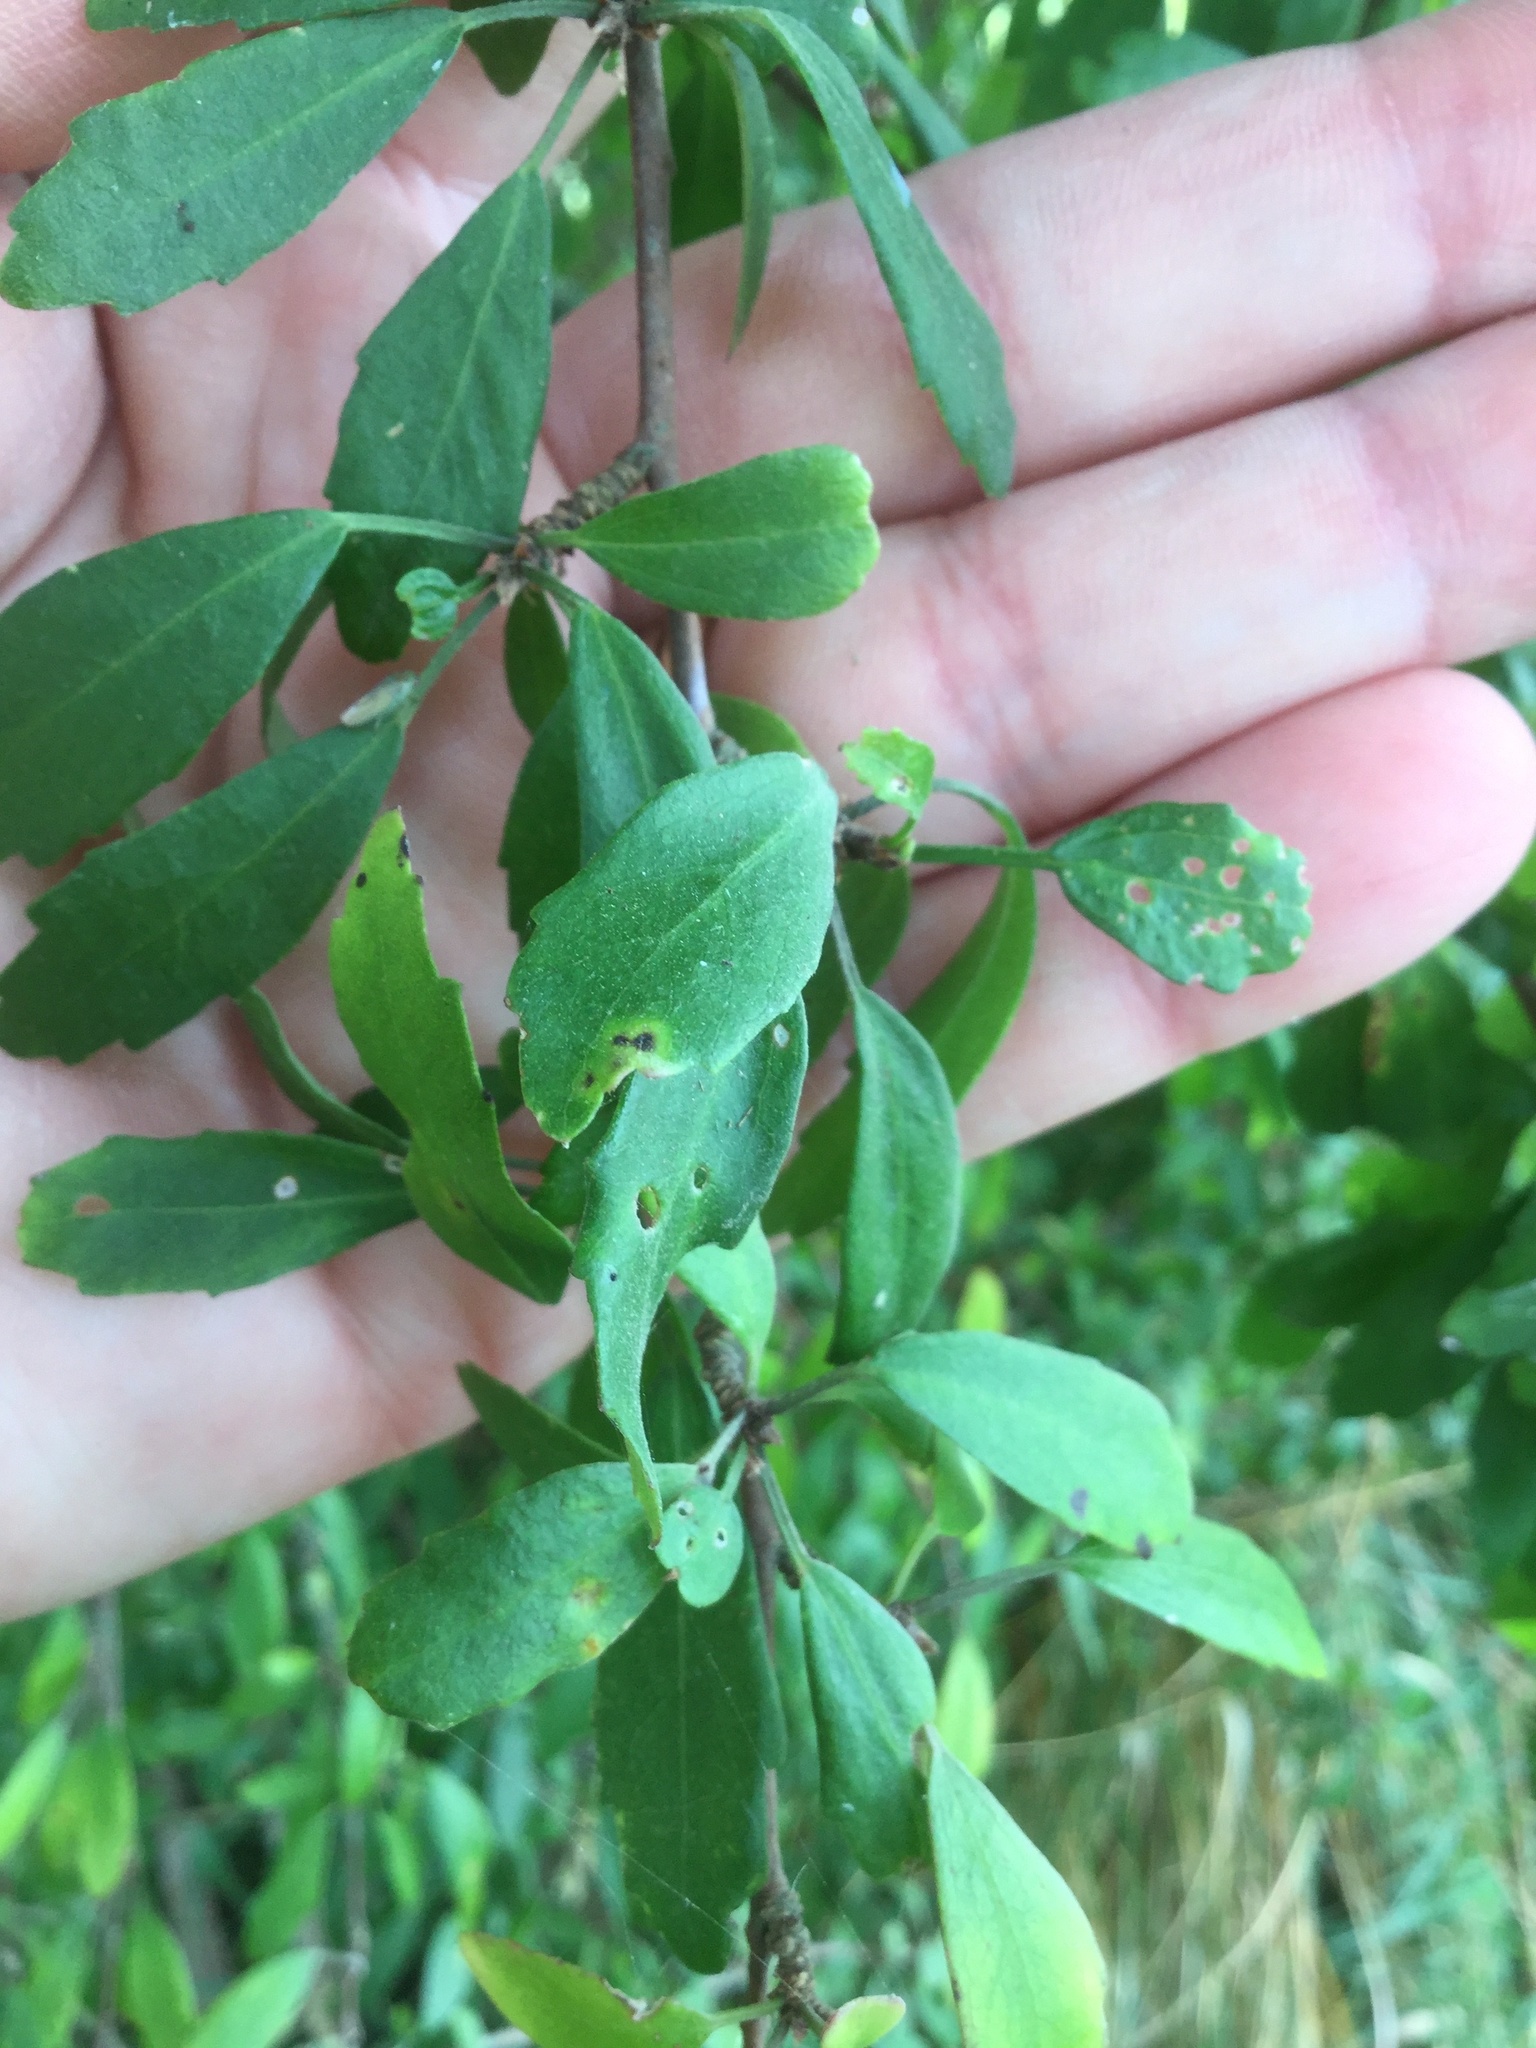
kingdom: Plantae
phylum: Tracheophyta
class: Magnoliopsida
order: Malvales
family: Malvaceae
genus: Hoheria
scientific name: Hoheria angustifolia
